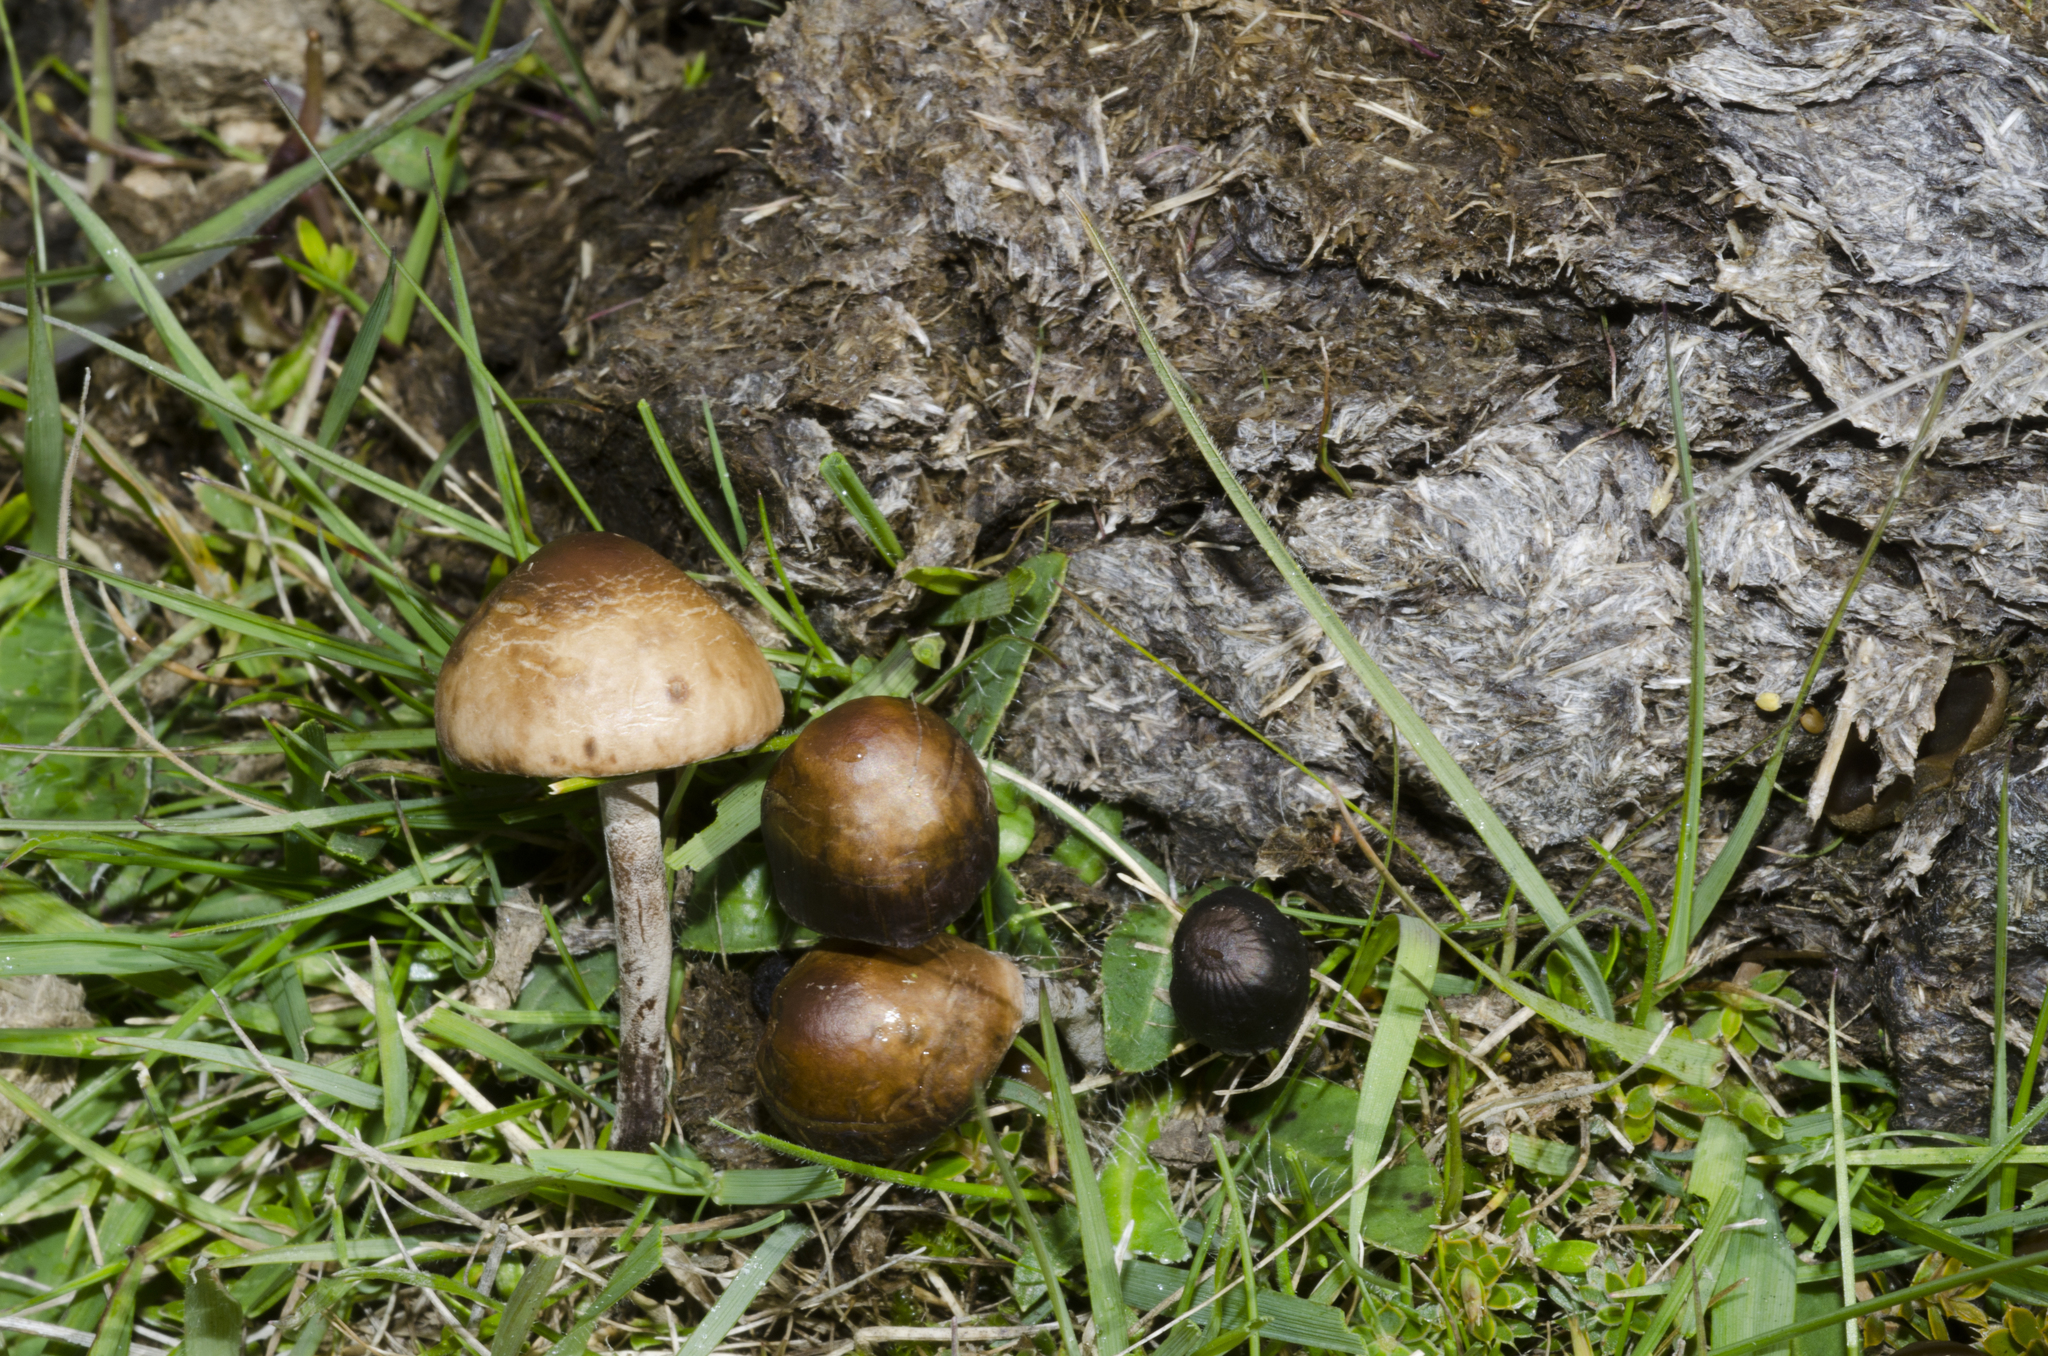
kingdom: Fungi
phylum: Basidiomycota
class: Agaricomycetes
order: Agaricales
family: Bolbitiaceae
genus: Panaeolus
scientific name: Panaeolus acuminatus
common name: Dewdrop mottlegill
